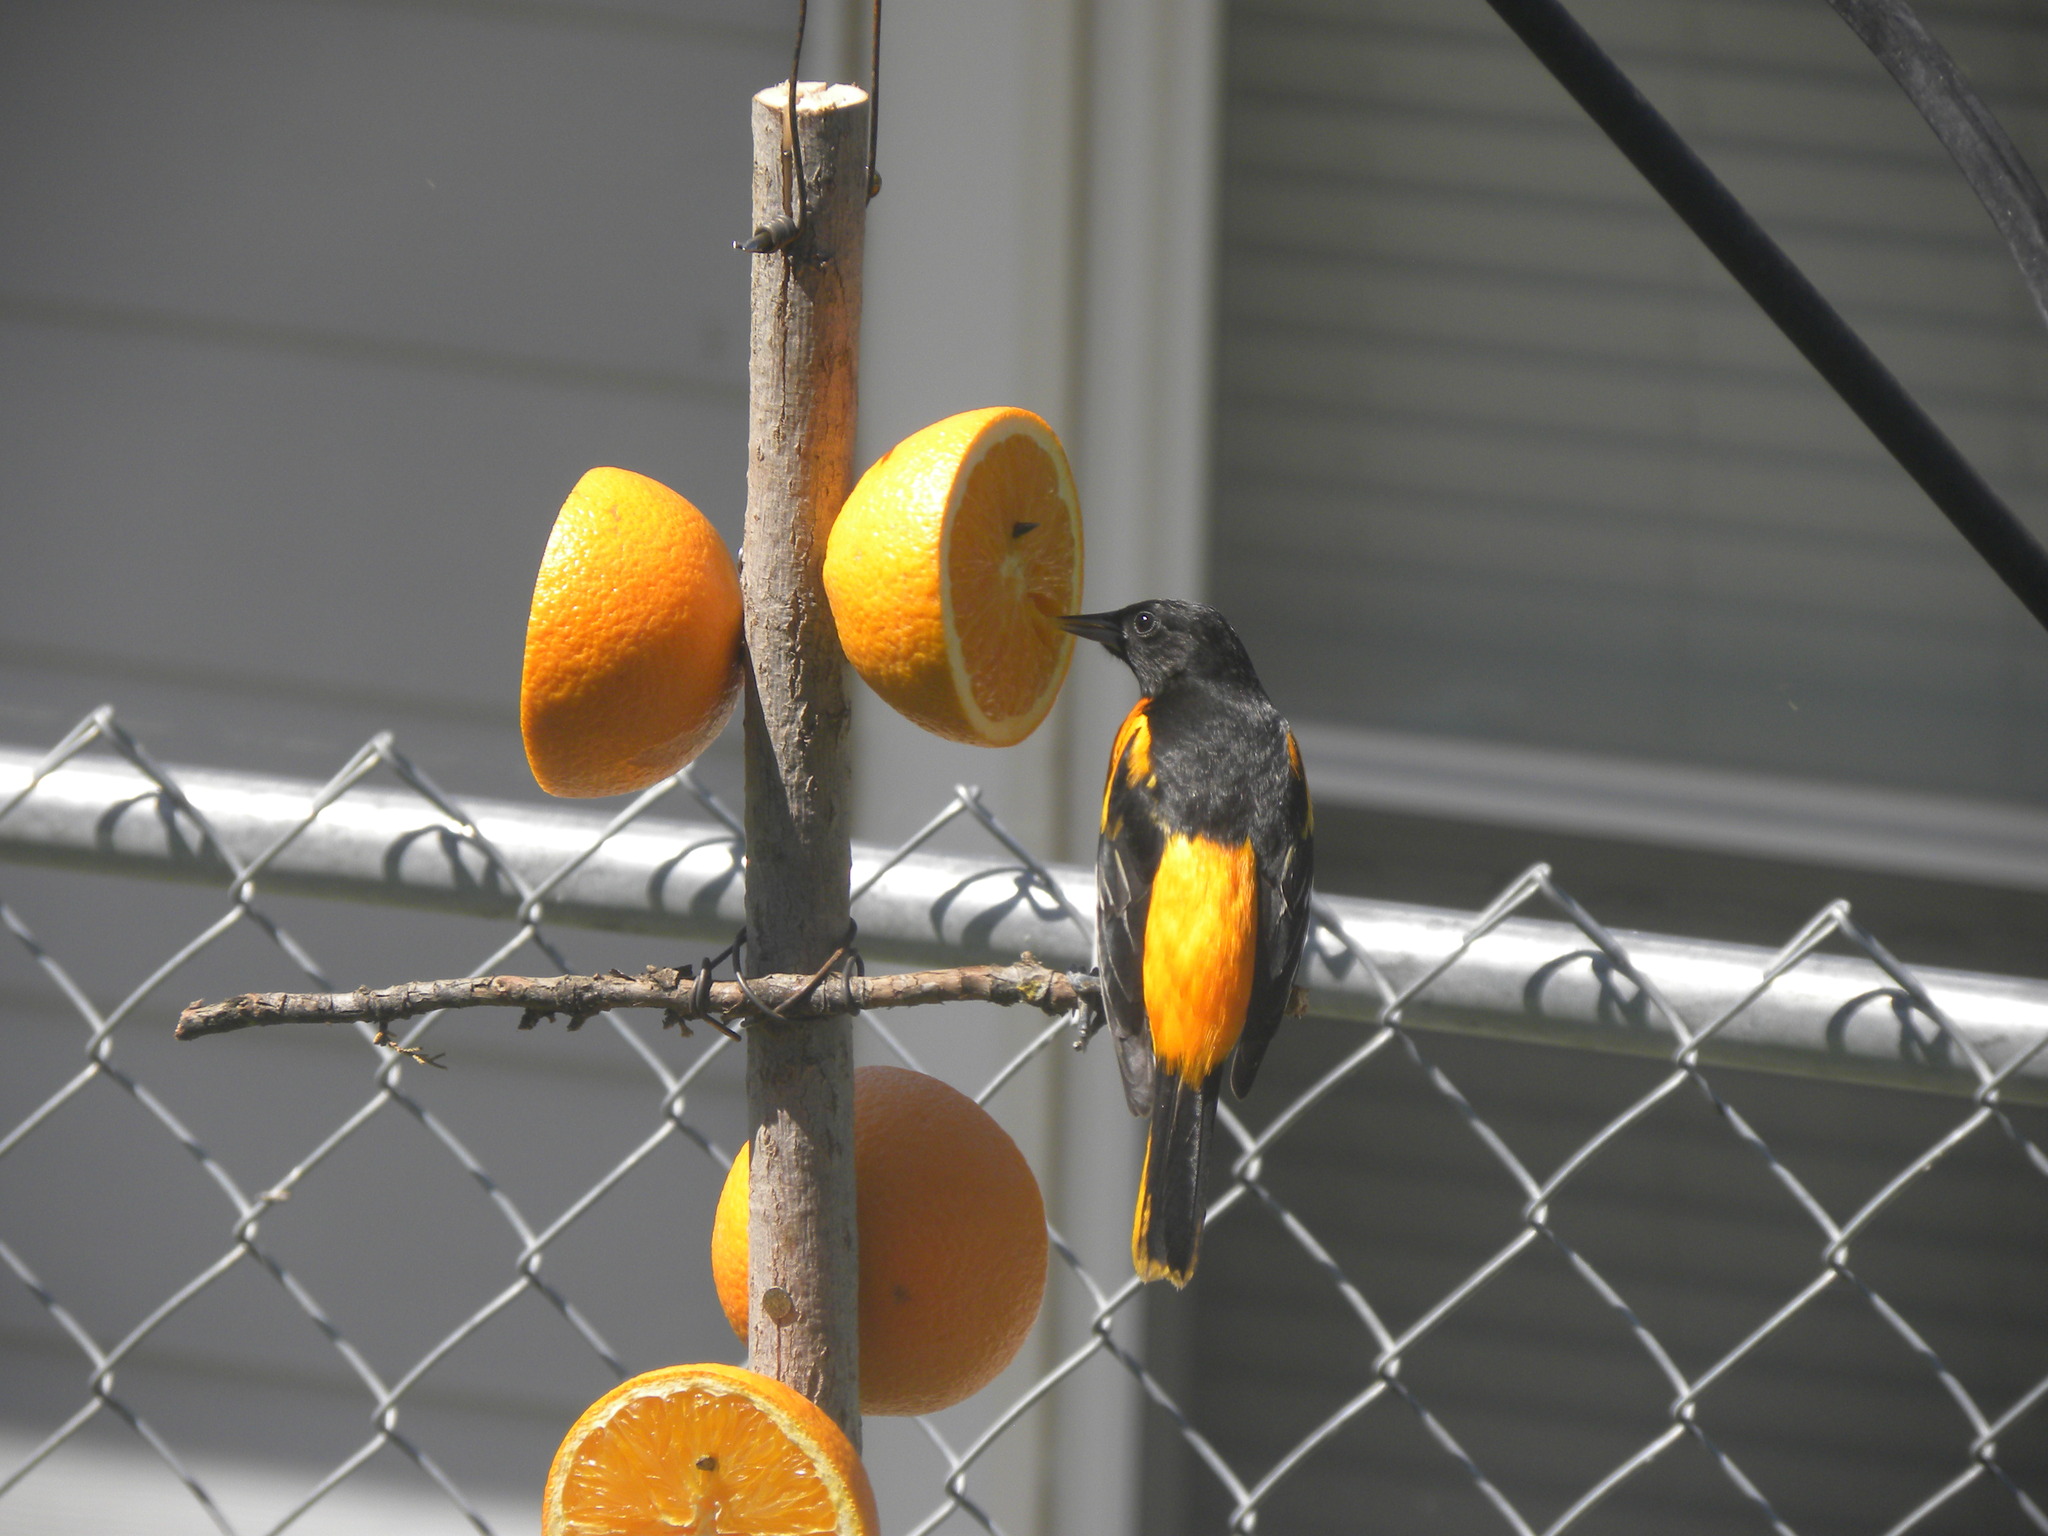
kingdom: Animalia
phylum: Chordata
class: Aves
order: Passeriformes
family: Icteridae
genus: Icterus
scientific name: Icterus galbula
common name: Baltimore oriole
